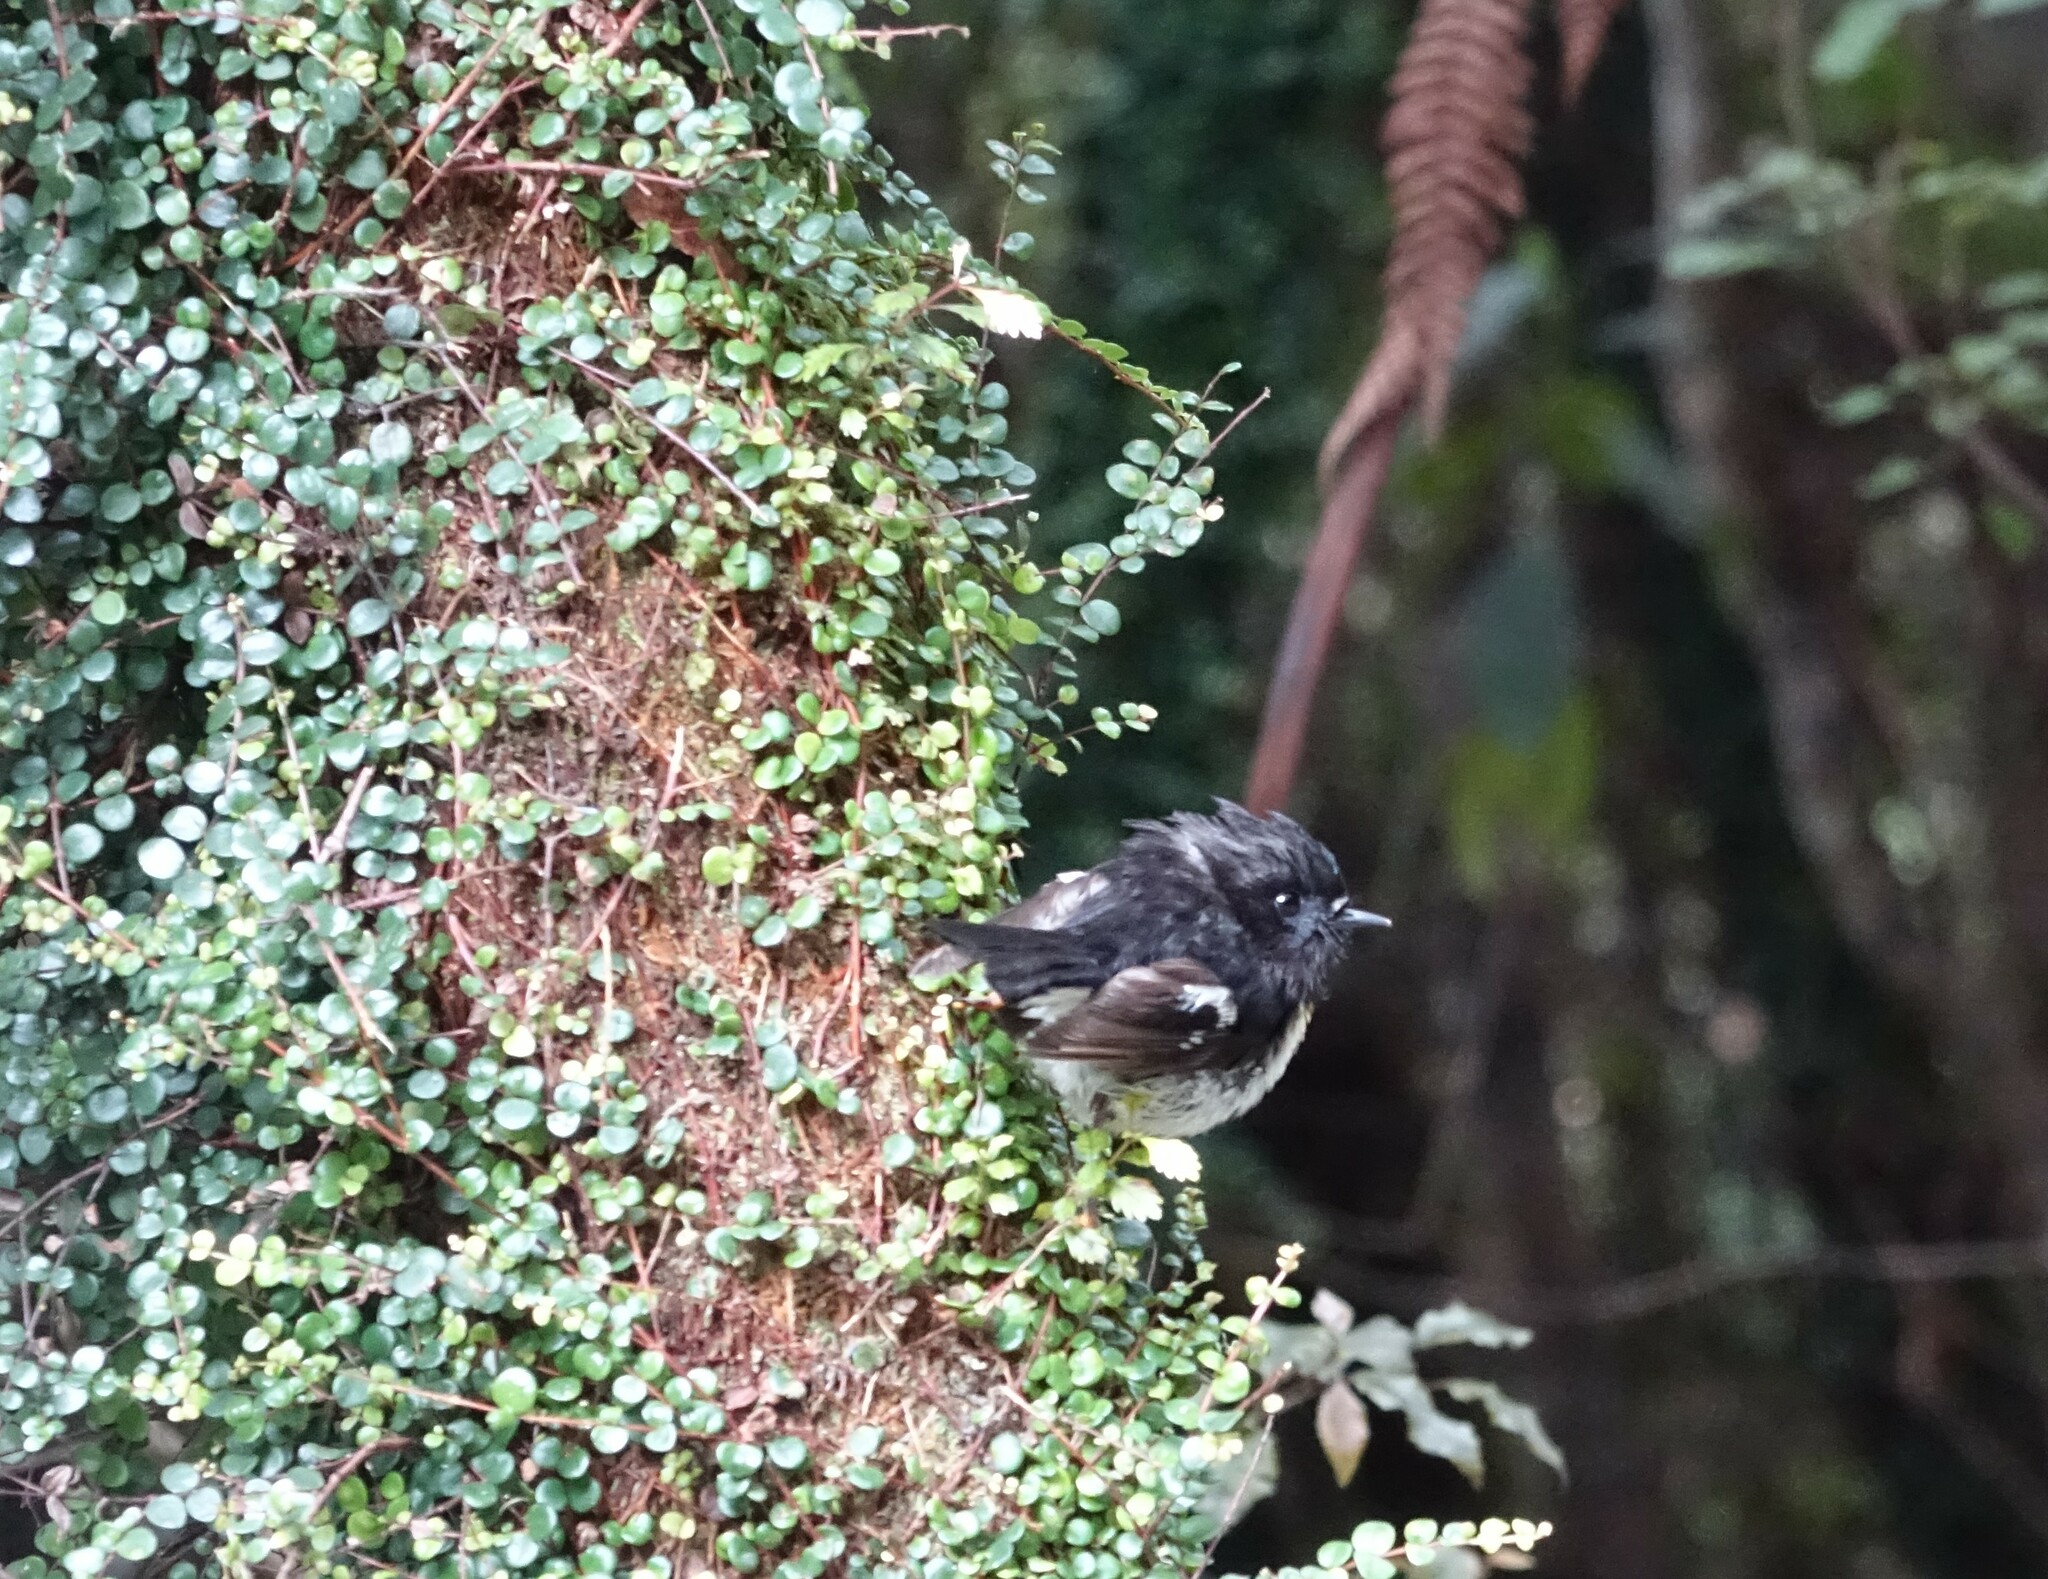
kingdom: Animalia
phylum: Chordata
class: Aves
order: Passeriformes
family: Petroicidae
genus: Petroica
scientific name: Petroica macrocephala
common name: Tomtit
